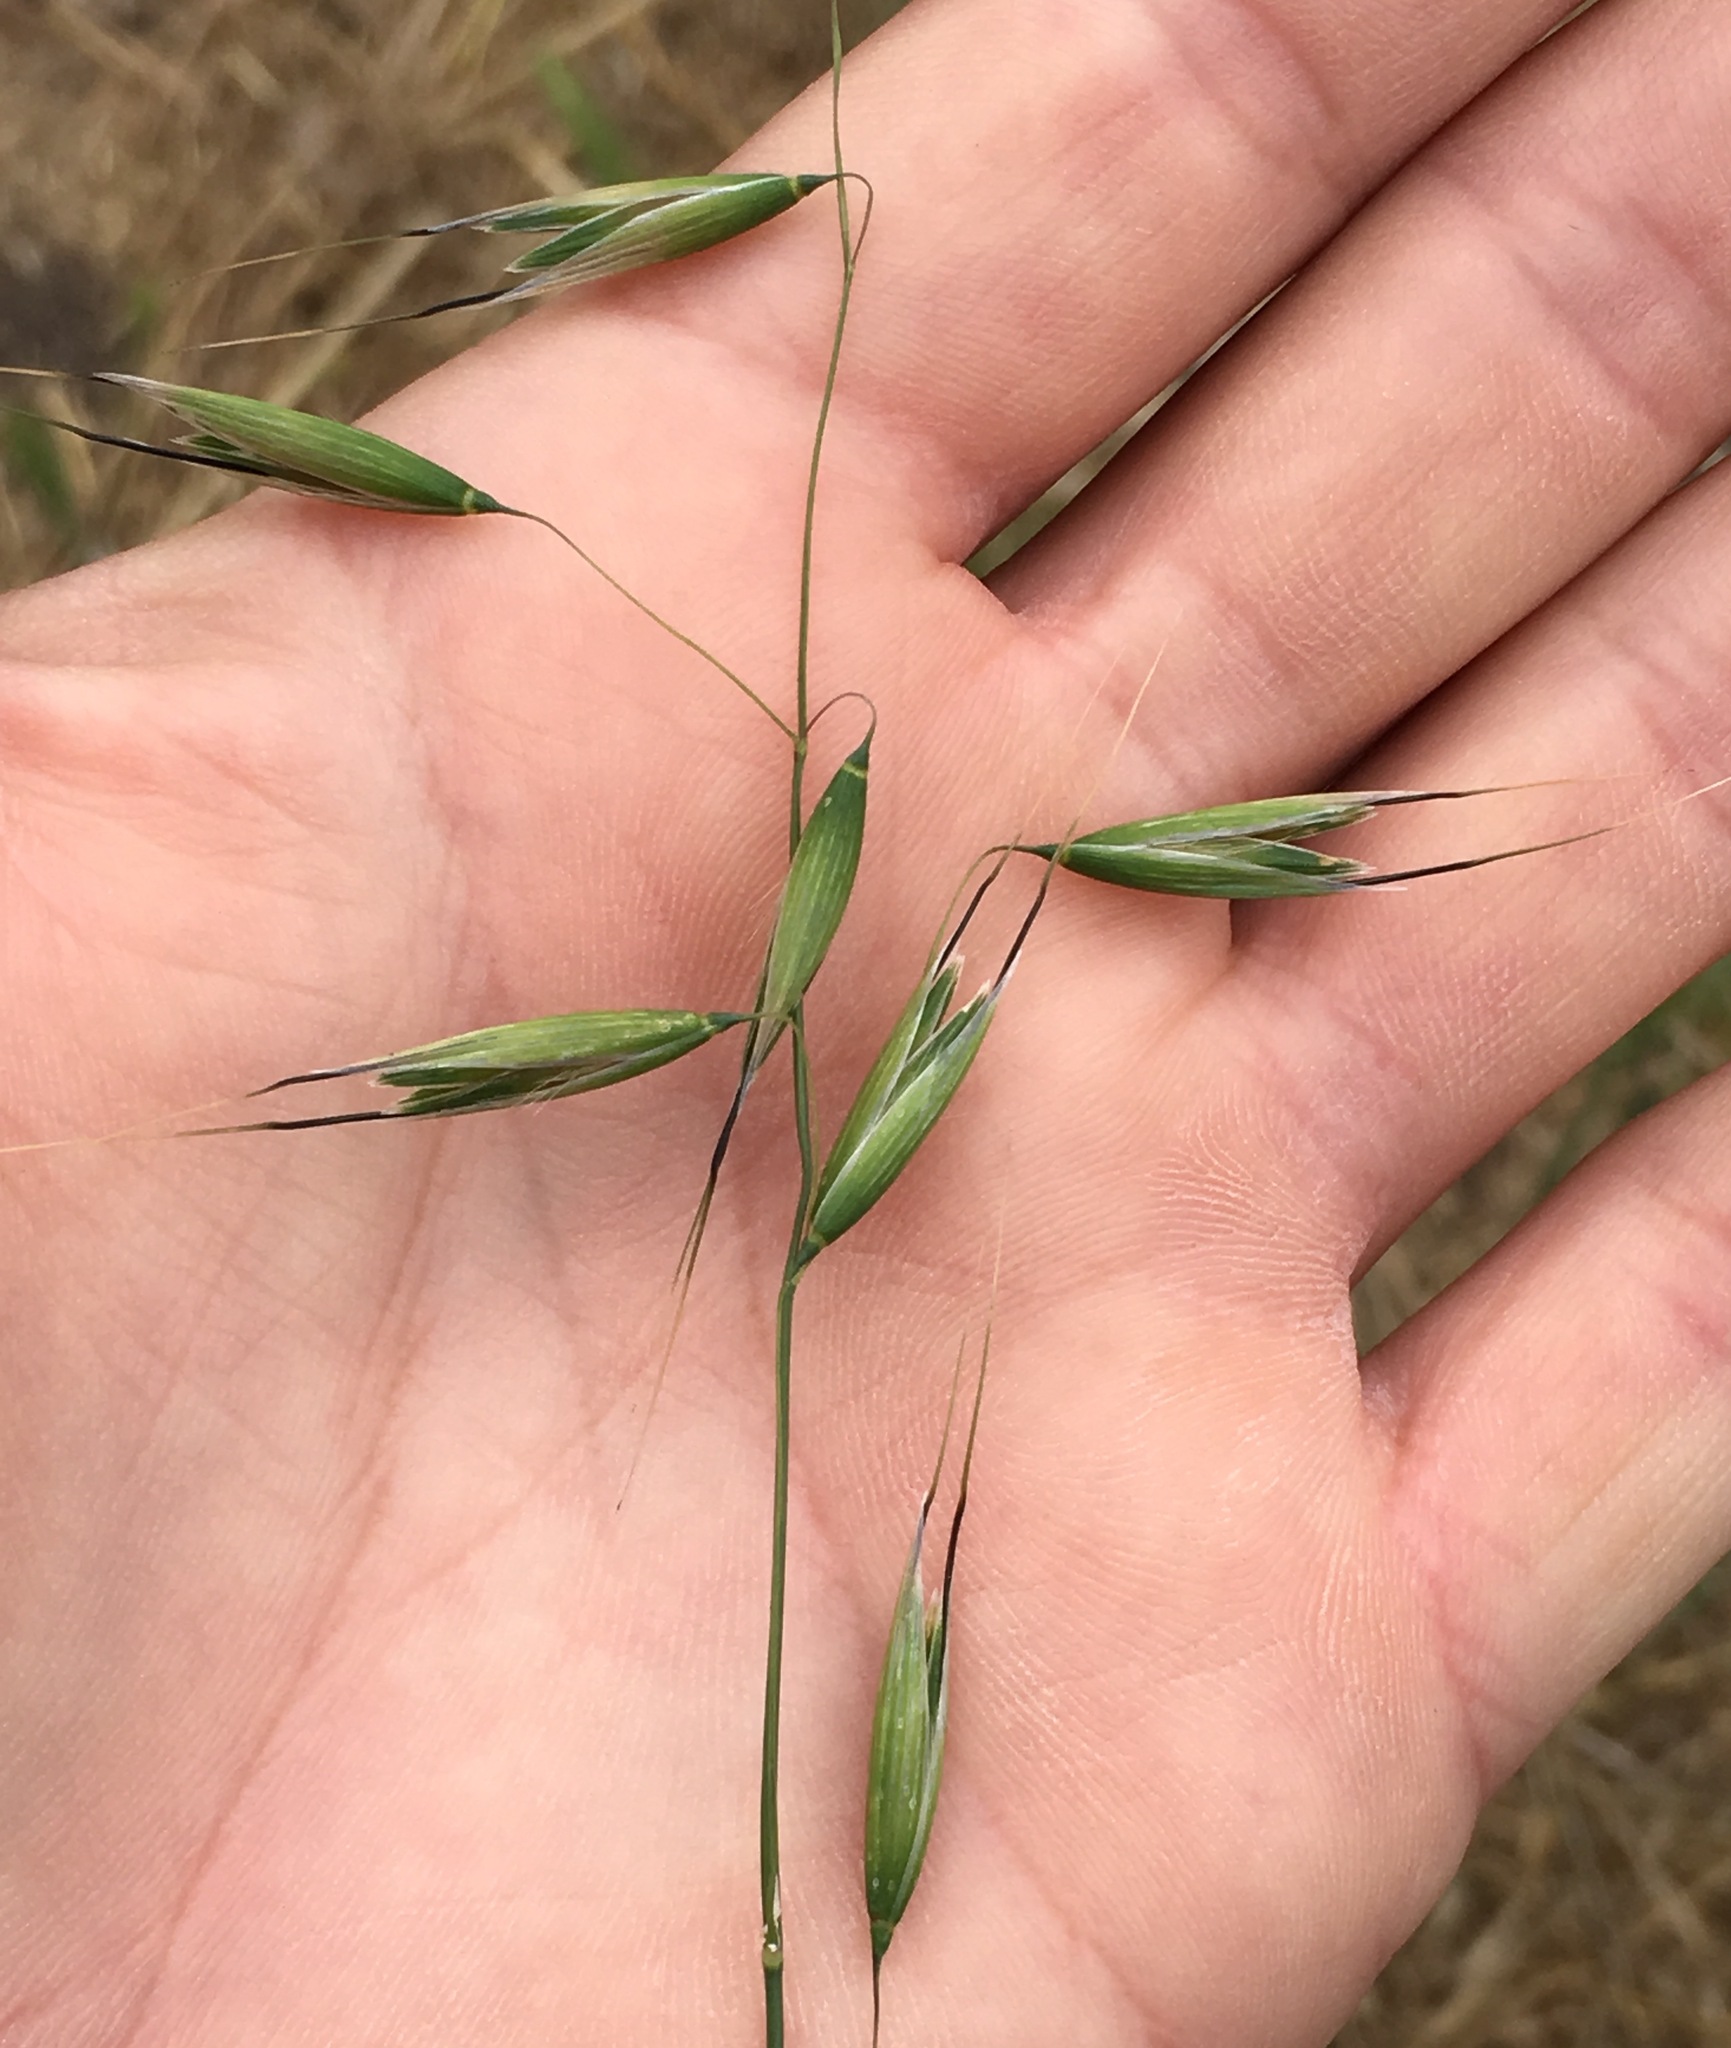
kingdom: Plantae
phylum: Tracheophyta
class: Liliopsida
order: Poales
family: Poaceae
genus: Avena
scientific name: Avena fatua
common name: Wild oat
